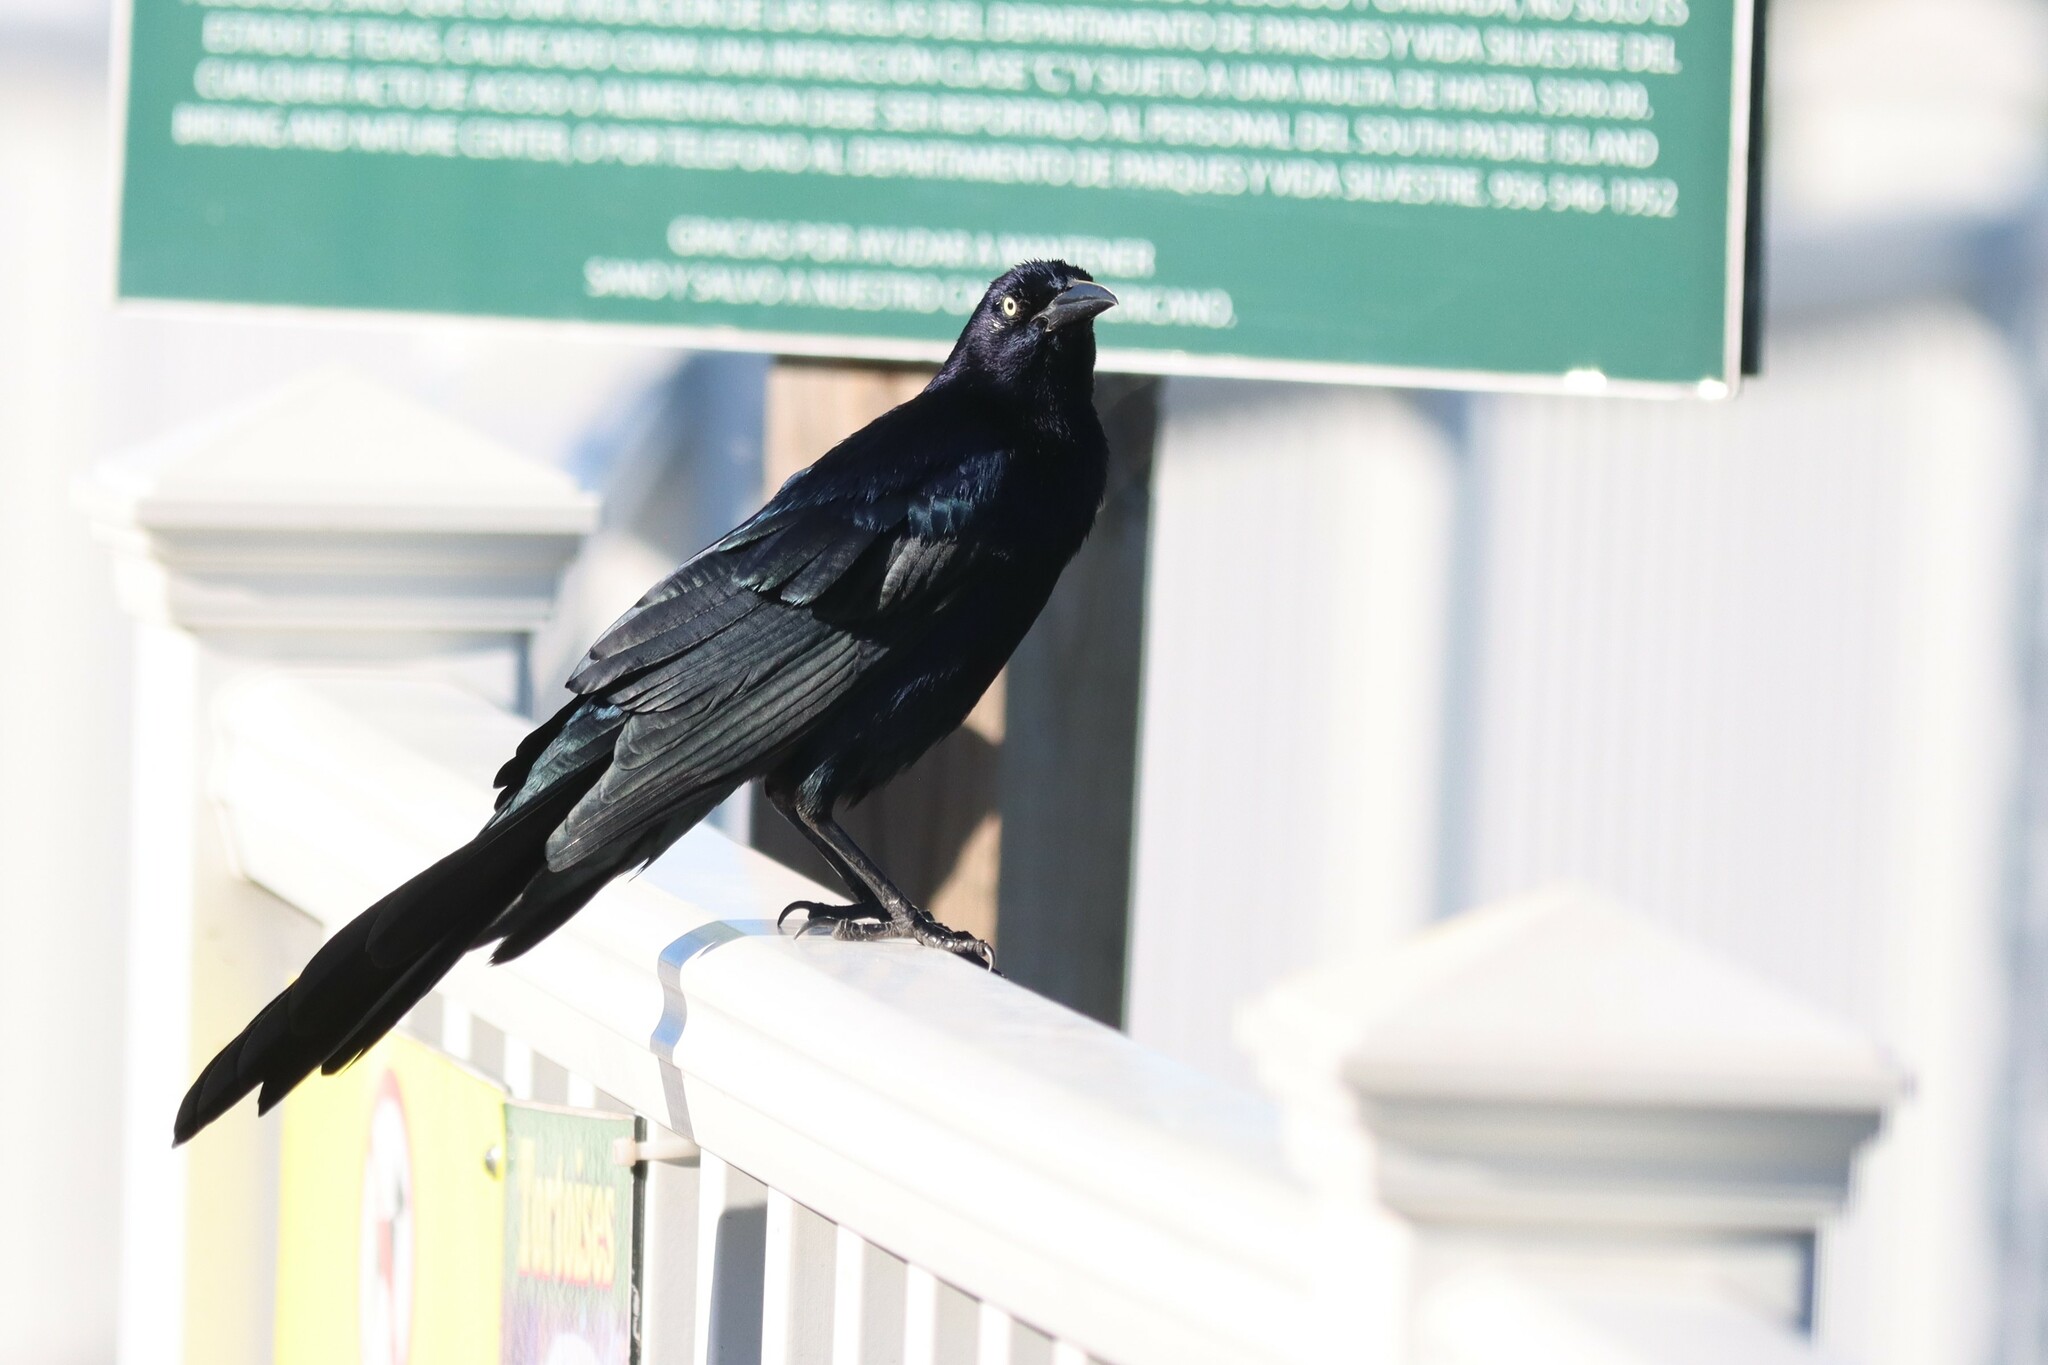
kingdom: Animalia
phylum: Chordata
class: Aves
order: Passeriformes
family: Icteridae
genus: Quiscalus
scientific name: Quiscalus mexicanus
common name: Great-tailed grackle
